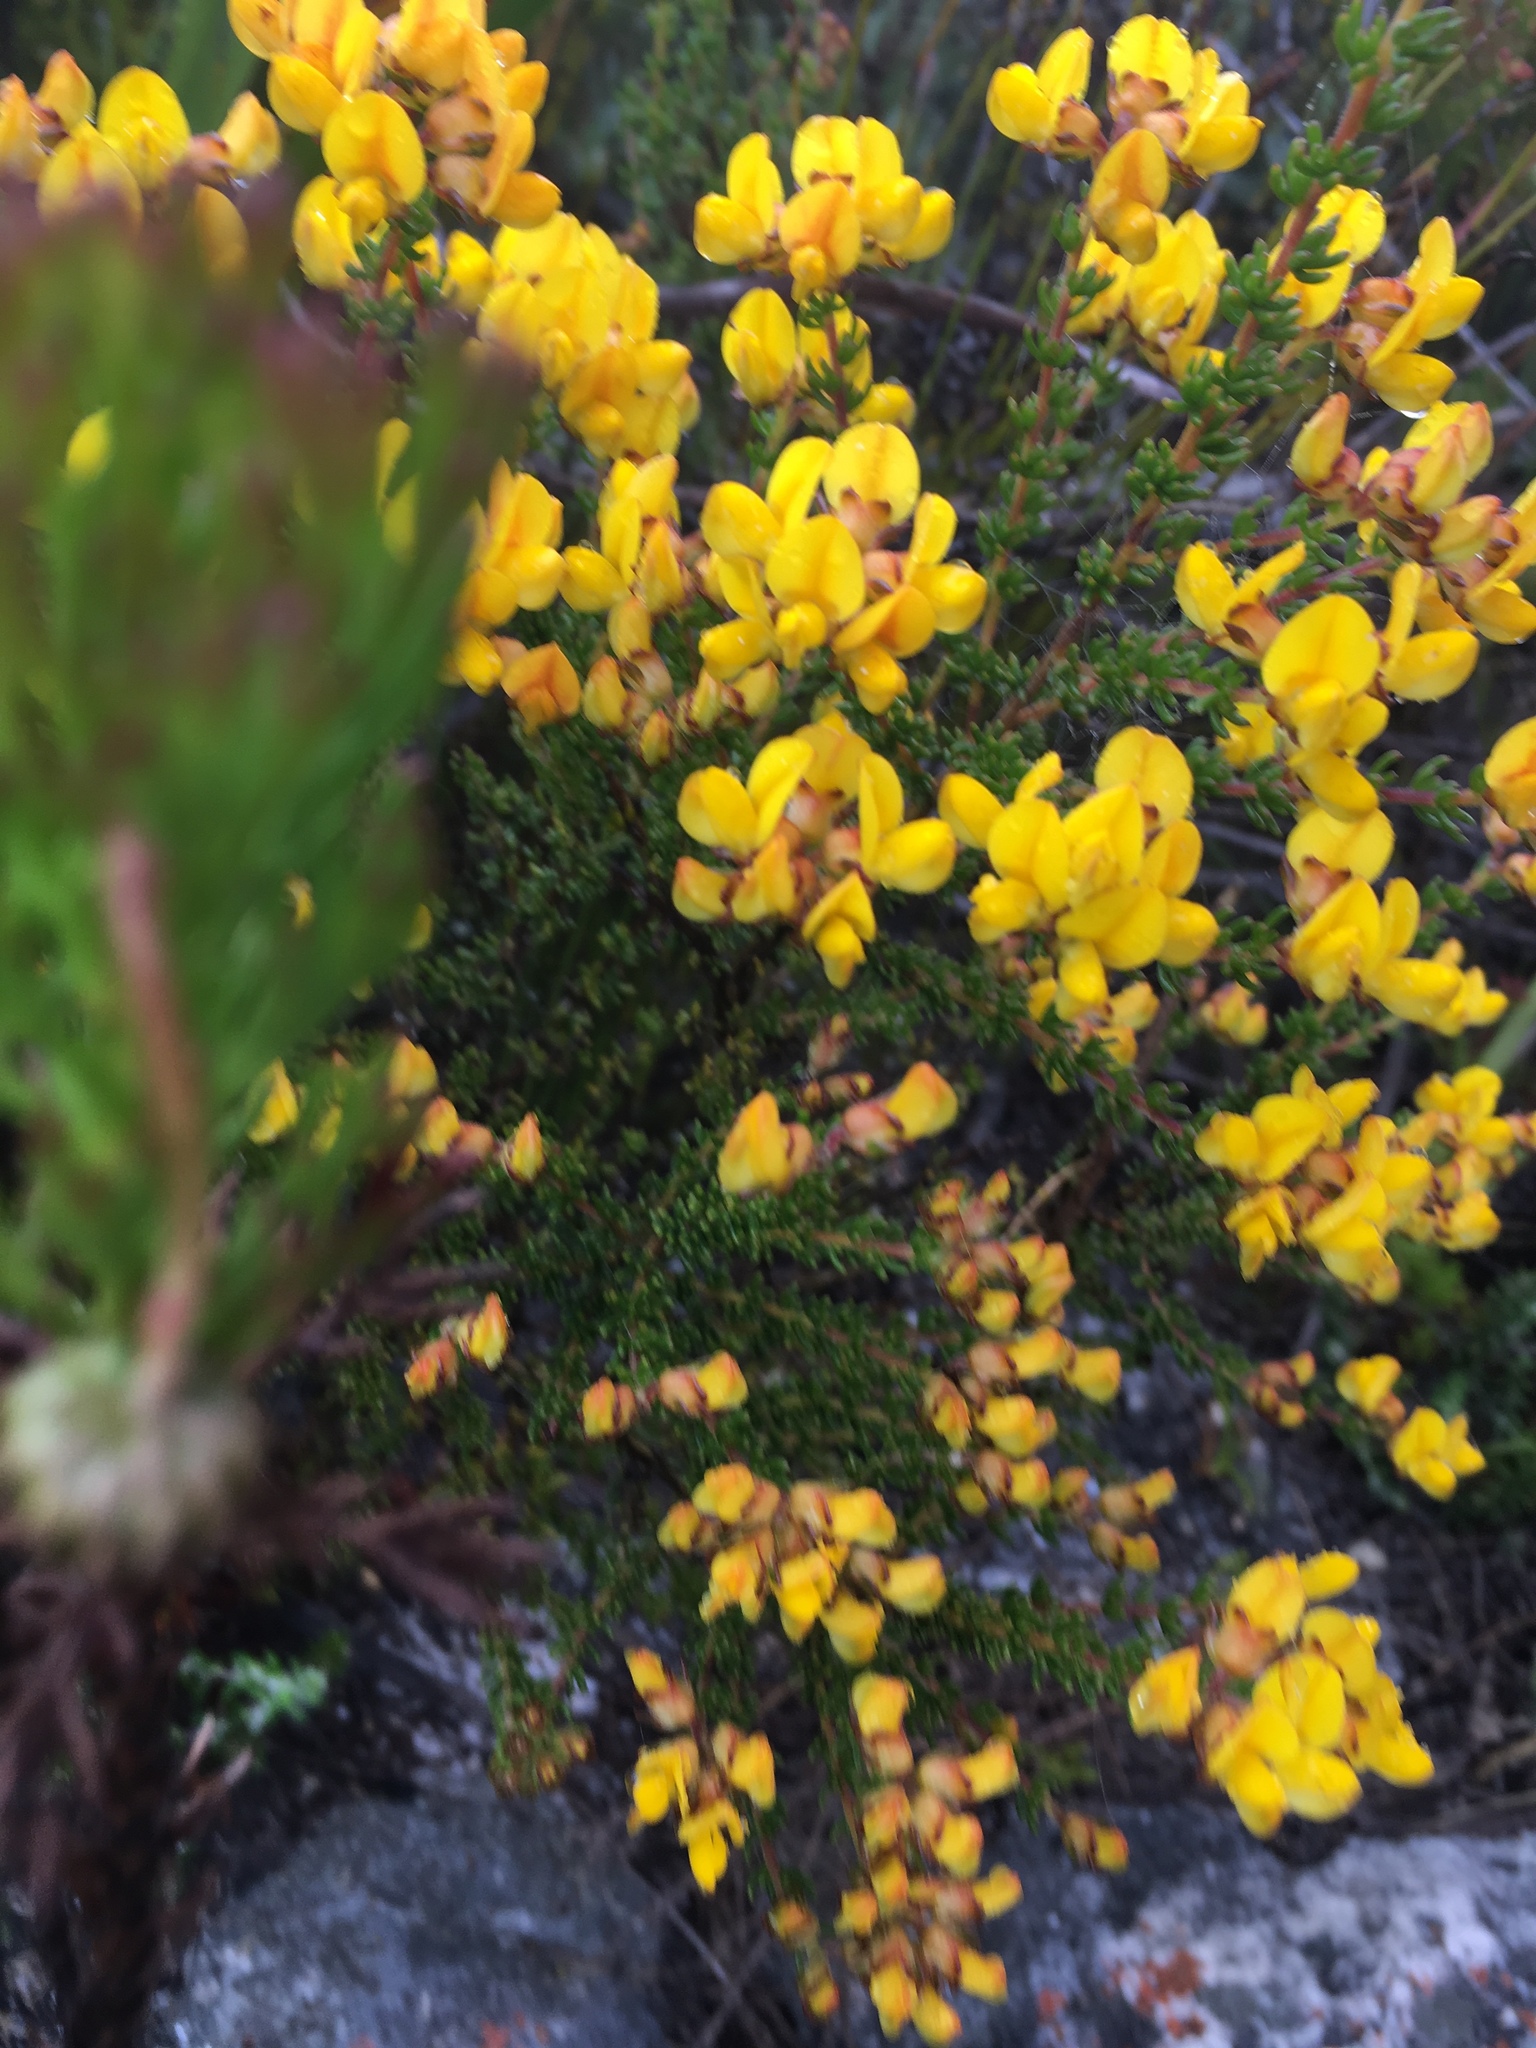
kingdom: Plantae
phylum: Tracheophyta
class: Magnoliopsida
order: Fabales
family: Fabaceae
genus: Aspalathus
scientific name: Aspalathus carnosa
